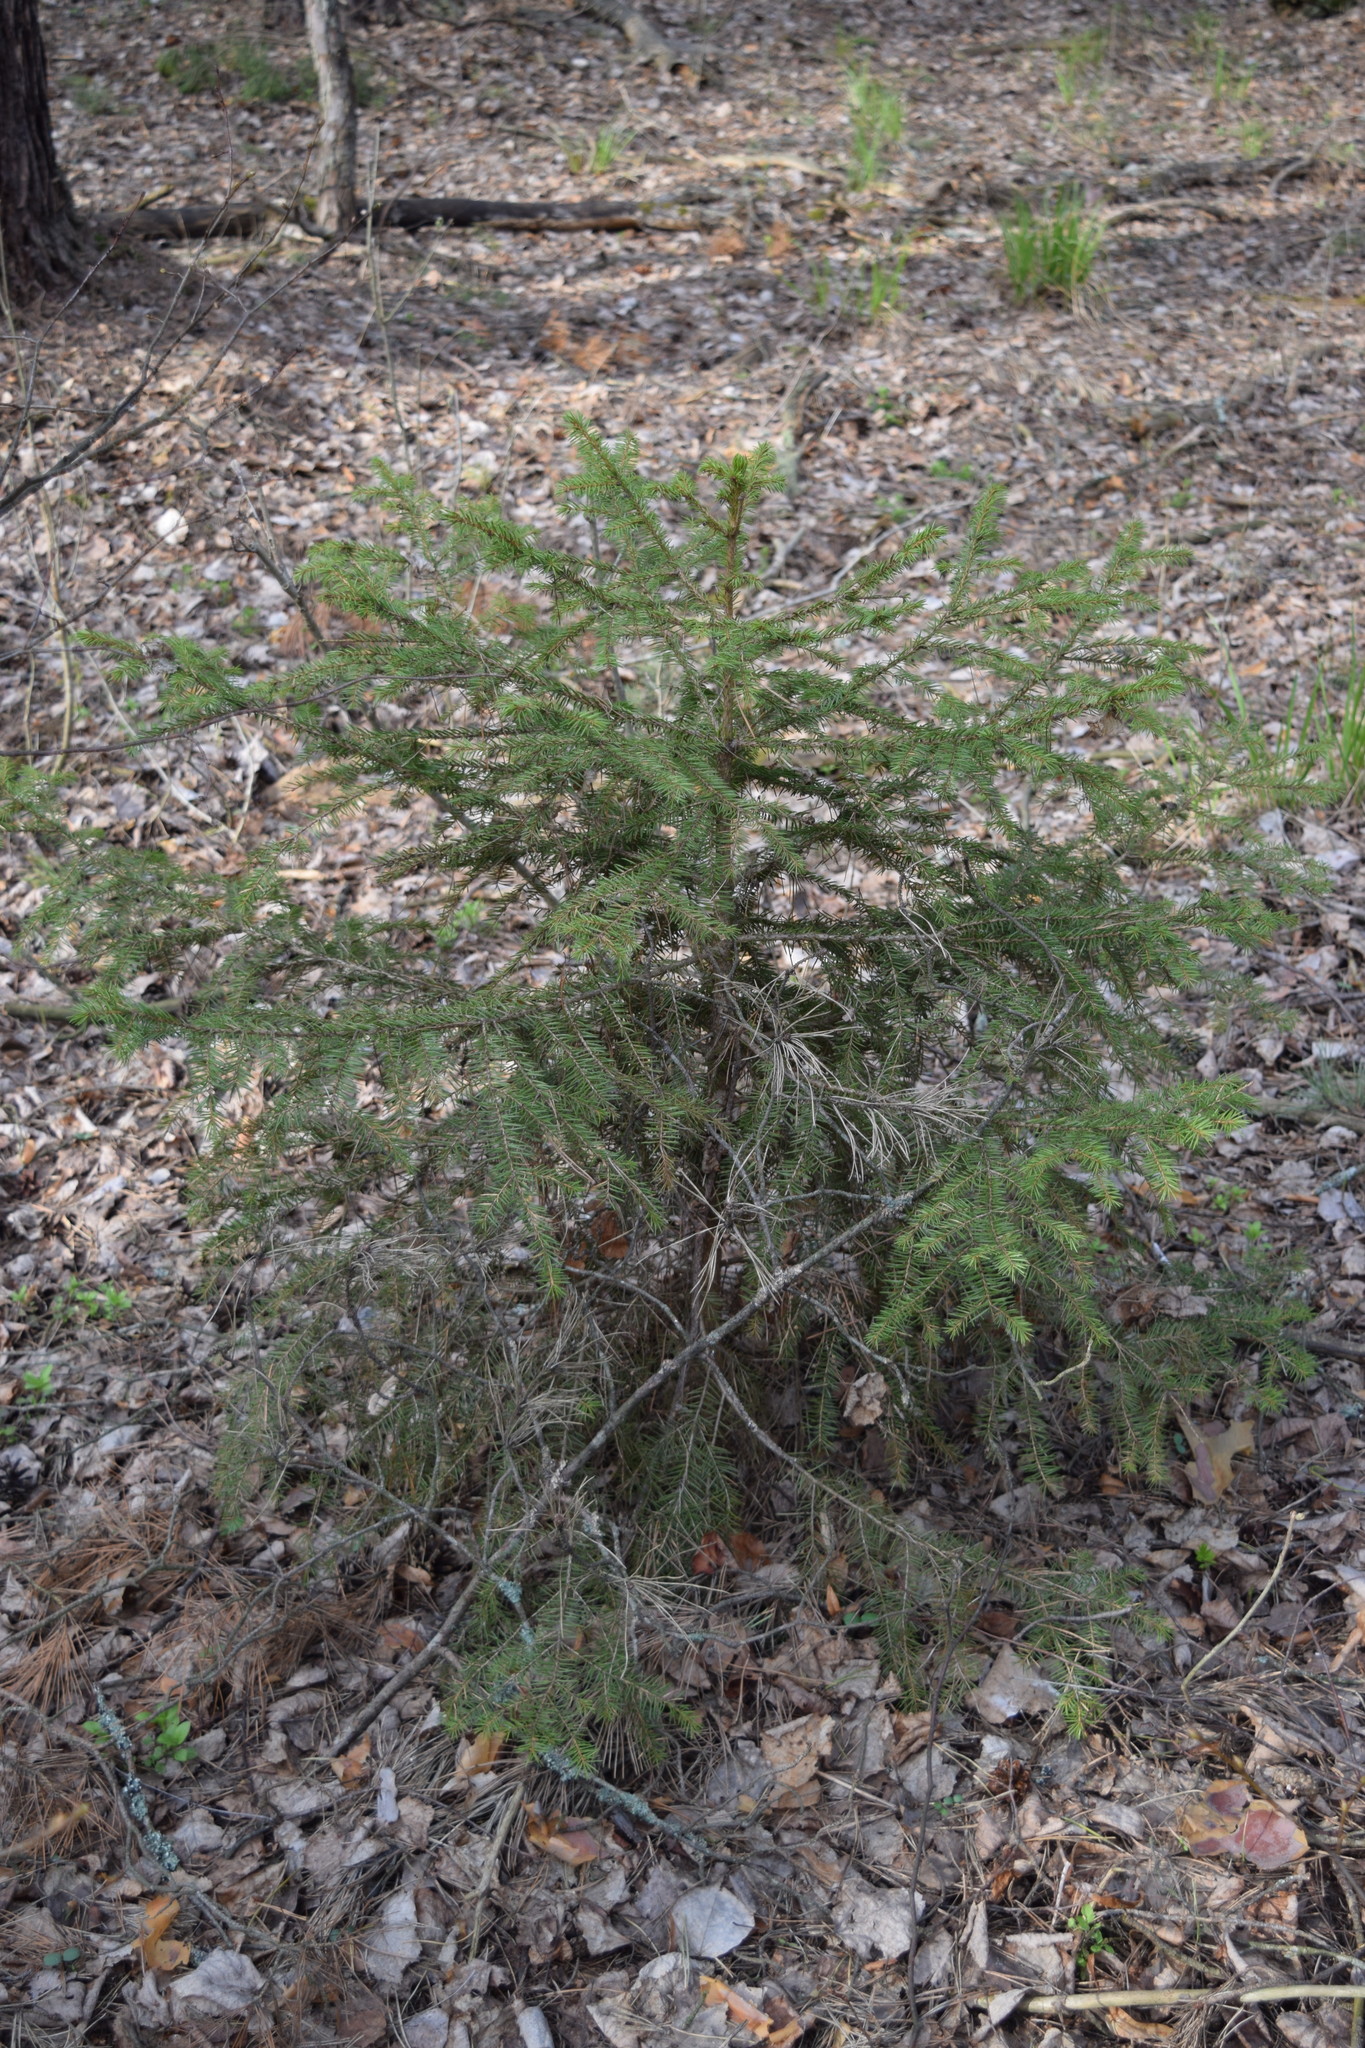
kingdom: Plantae
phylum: Tracheophyta
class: Pinopsida
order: Pinales
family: Pinaceae
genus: Picea
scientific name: Picea abies
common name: Norway spruce
